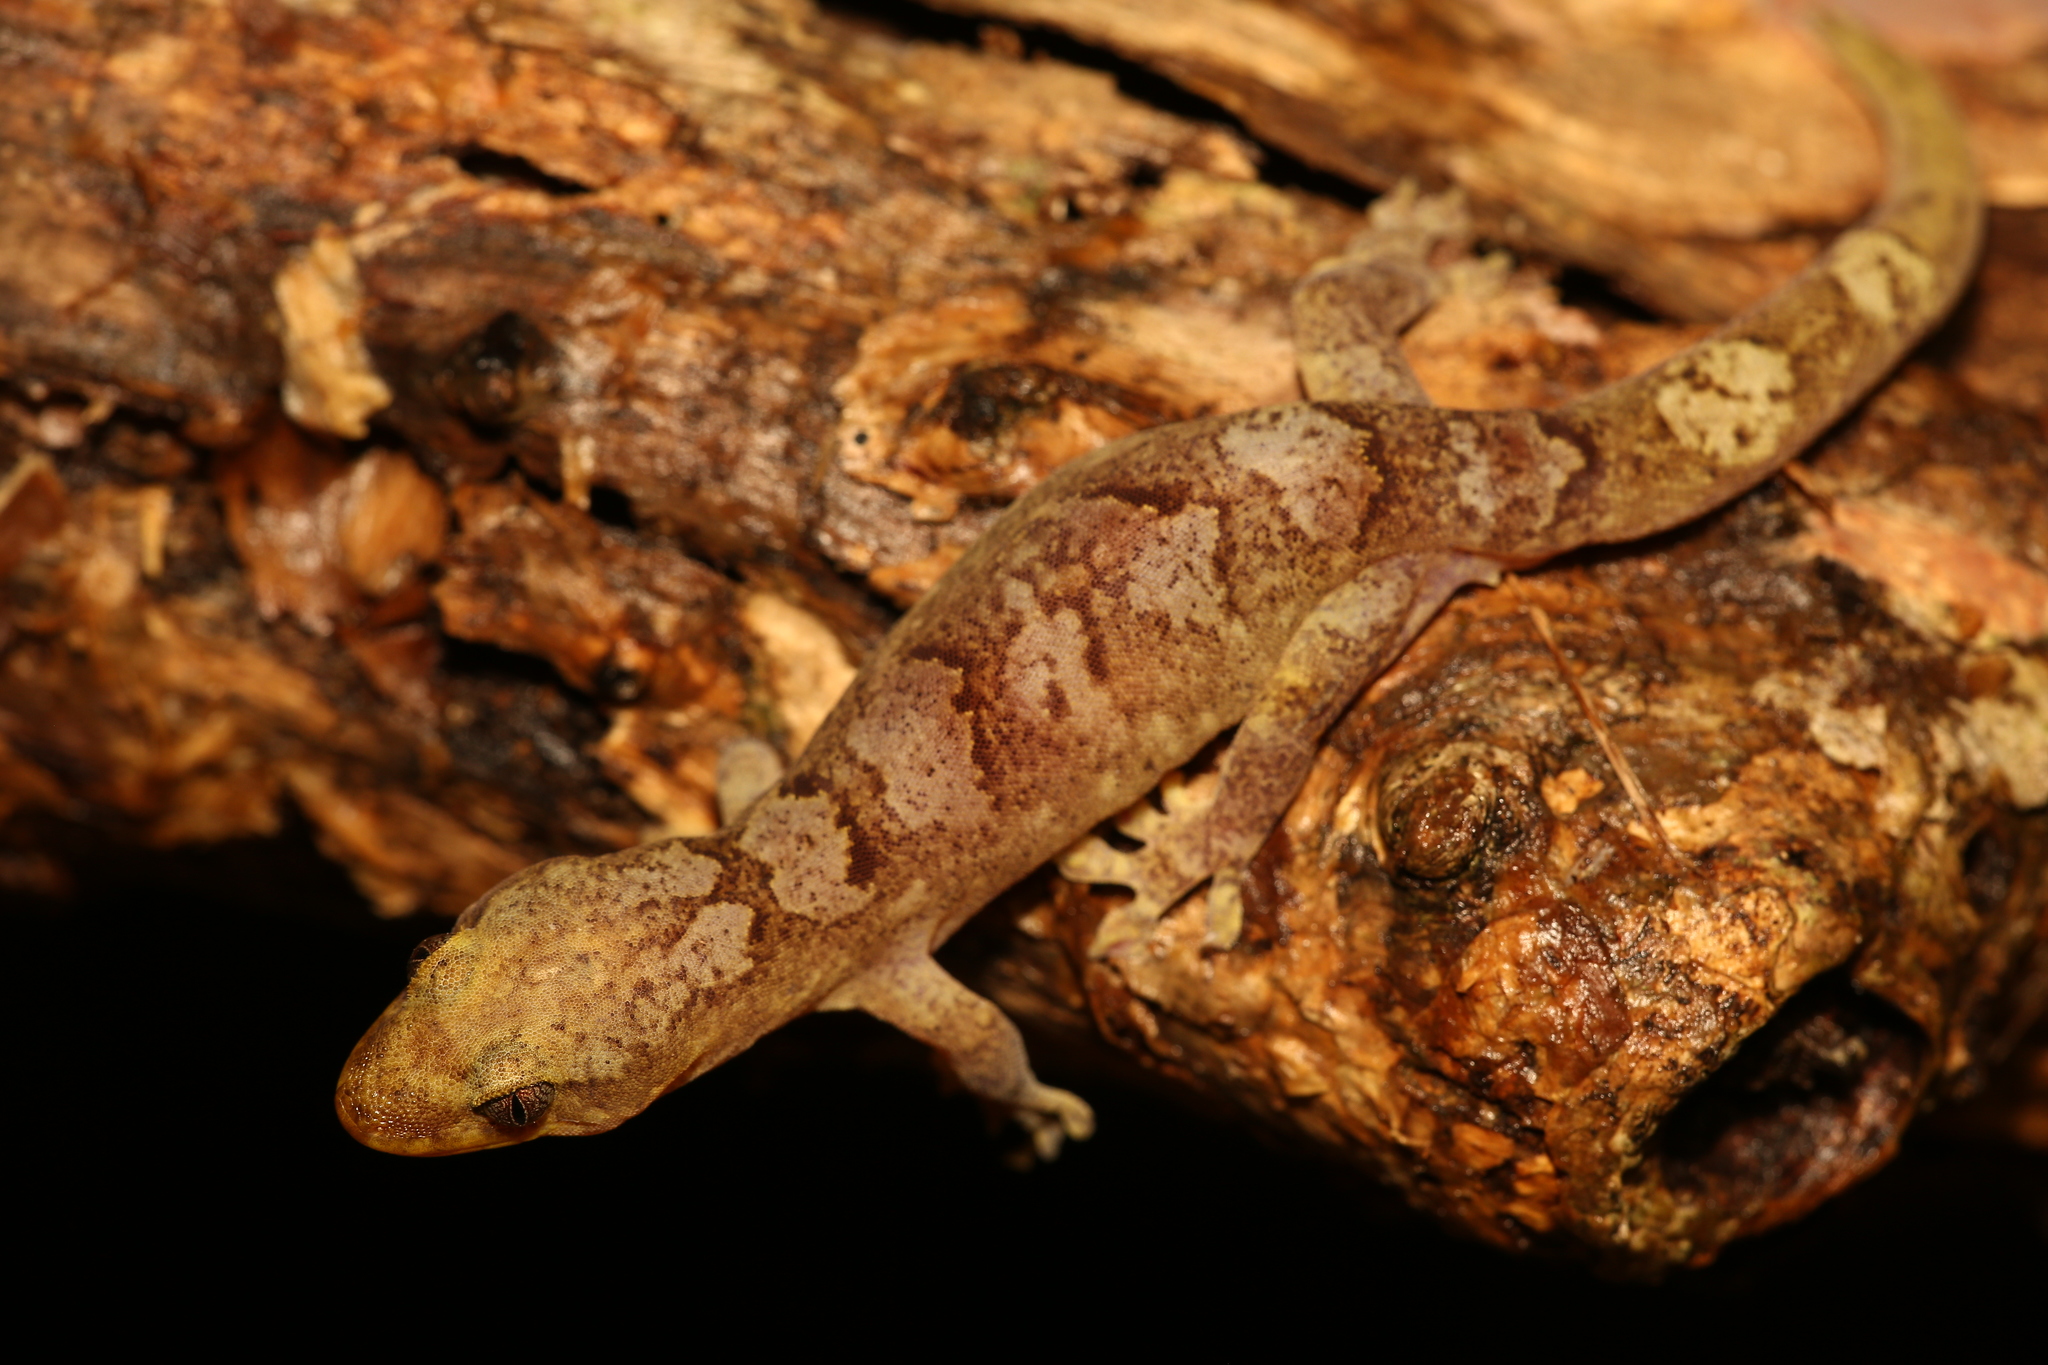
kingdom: Animalia
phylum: Chordata
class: Squamata
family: Diplodactylidae
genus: Bavayia
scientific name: Bavayia
